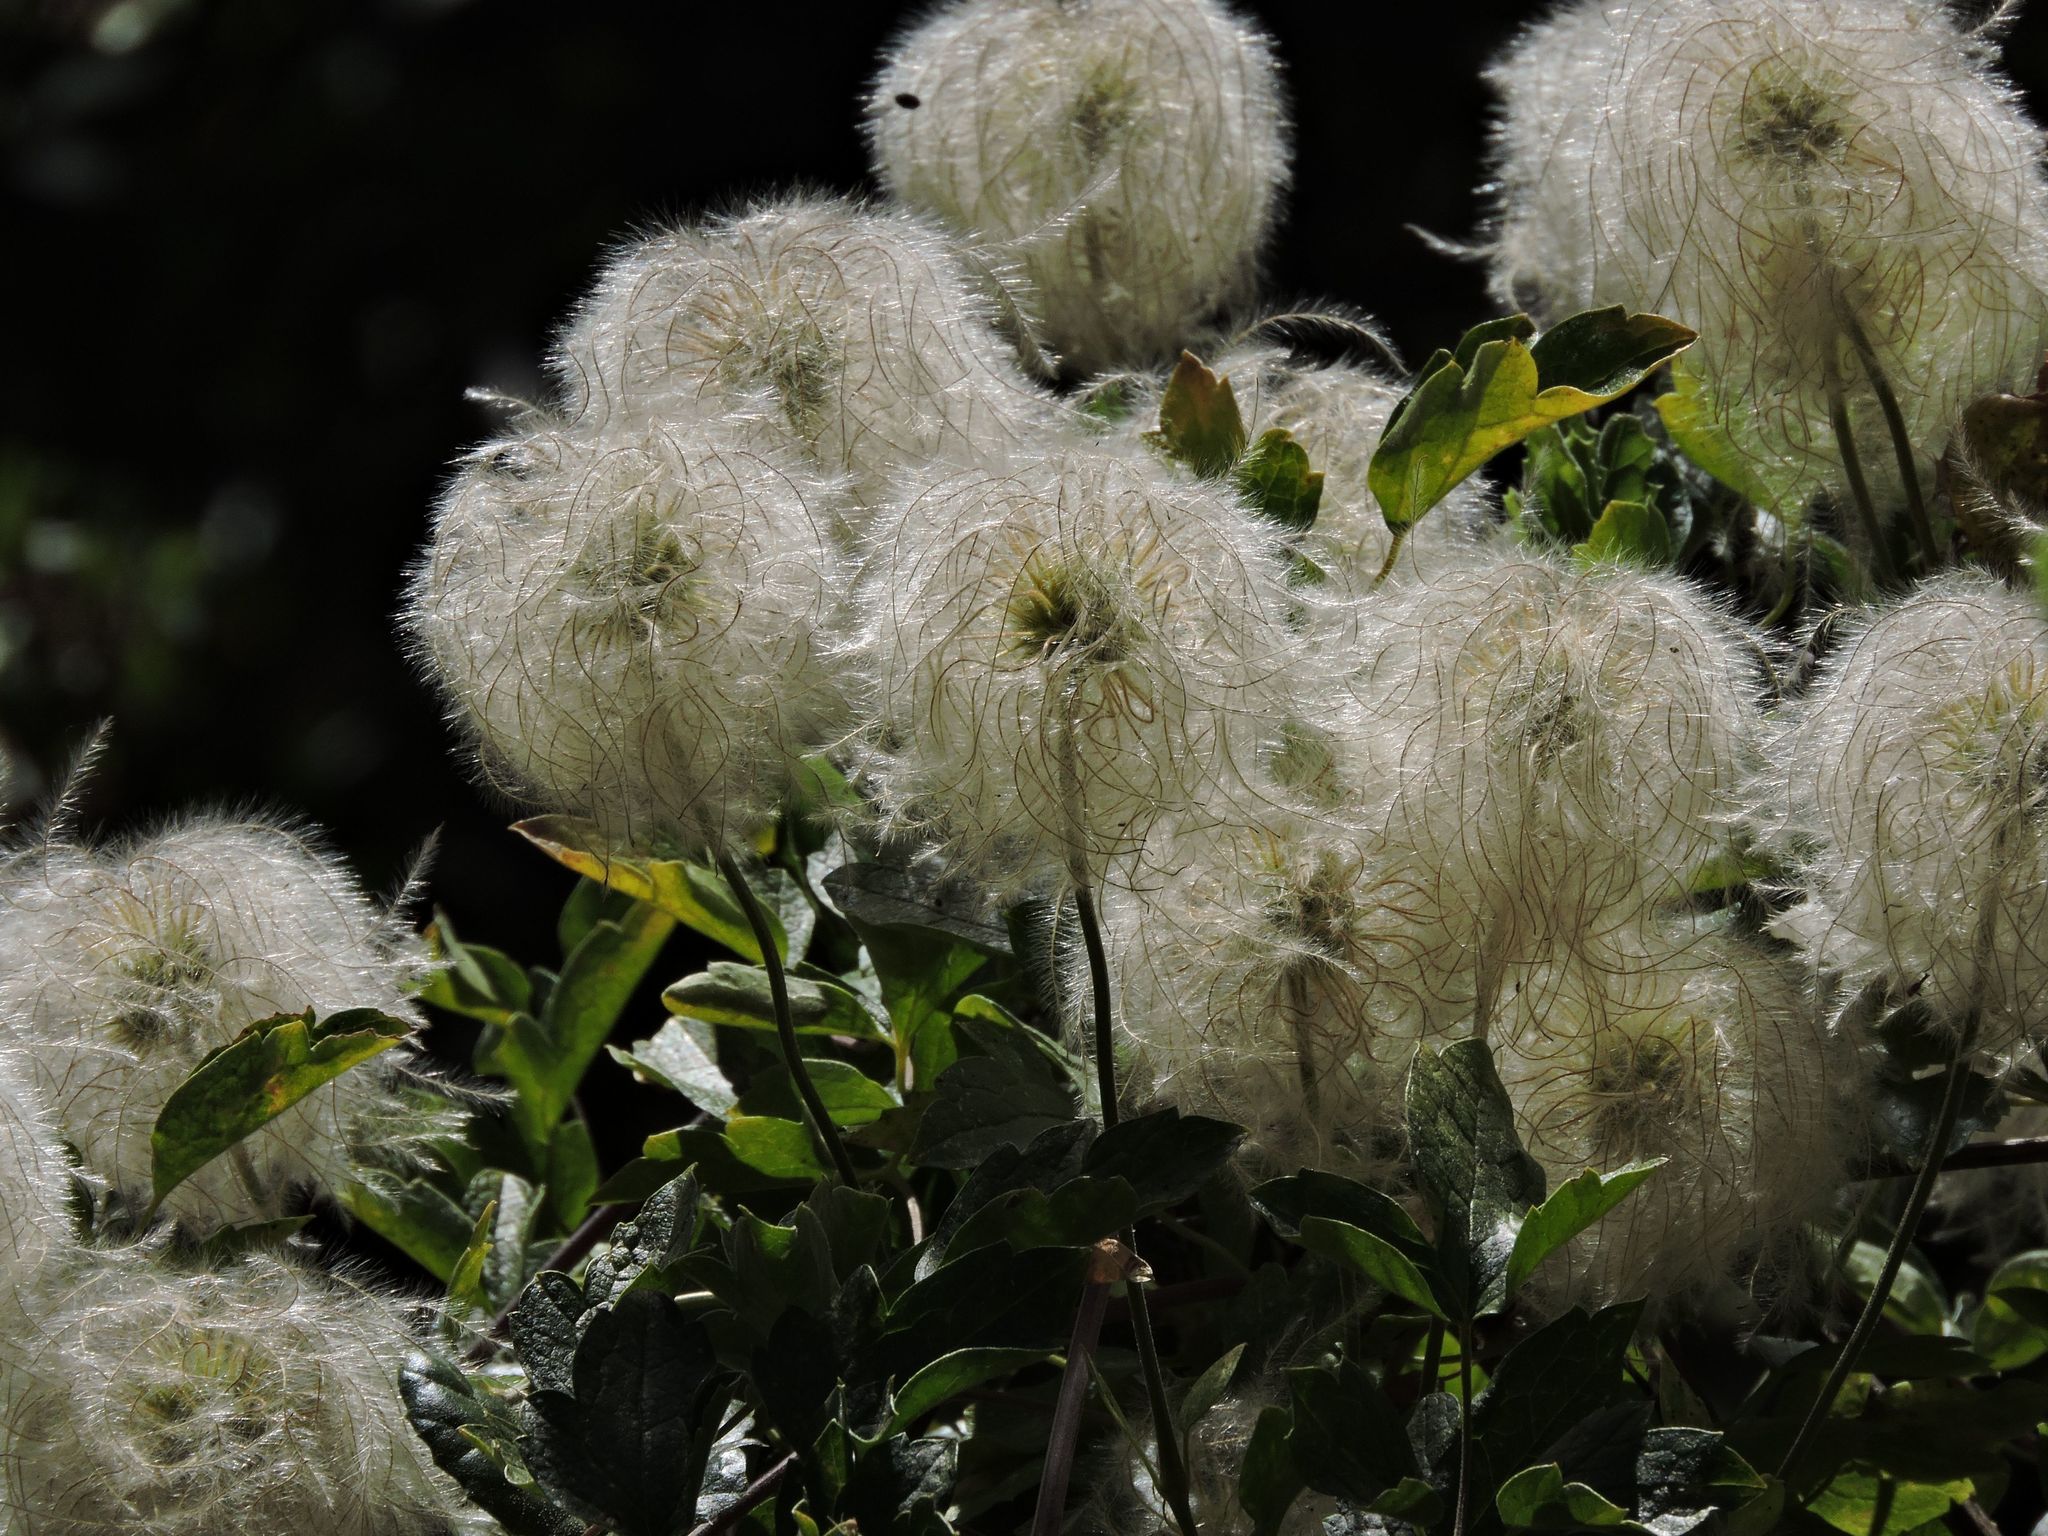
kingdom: Plantae
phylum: Tracheophyta
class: Magnoliopsida
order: Ranunculales
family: Ranunculaceae
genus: Clematis
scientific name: Clematis lasiantha
